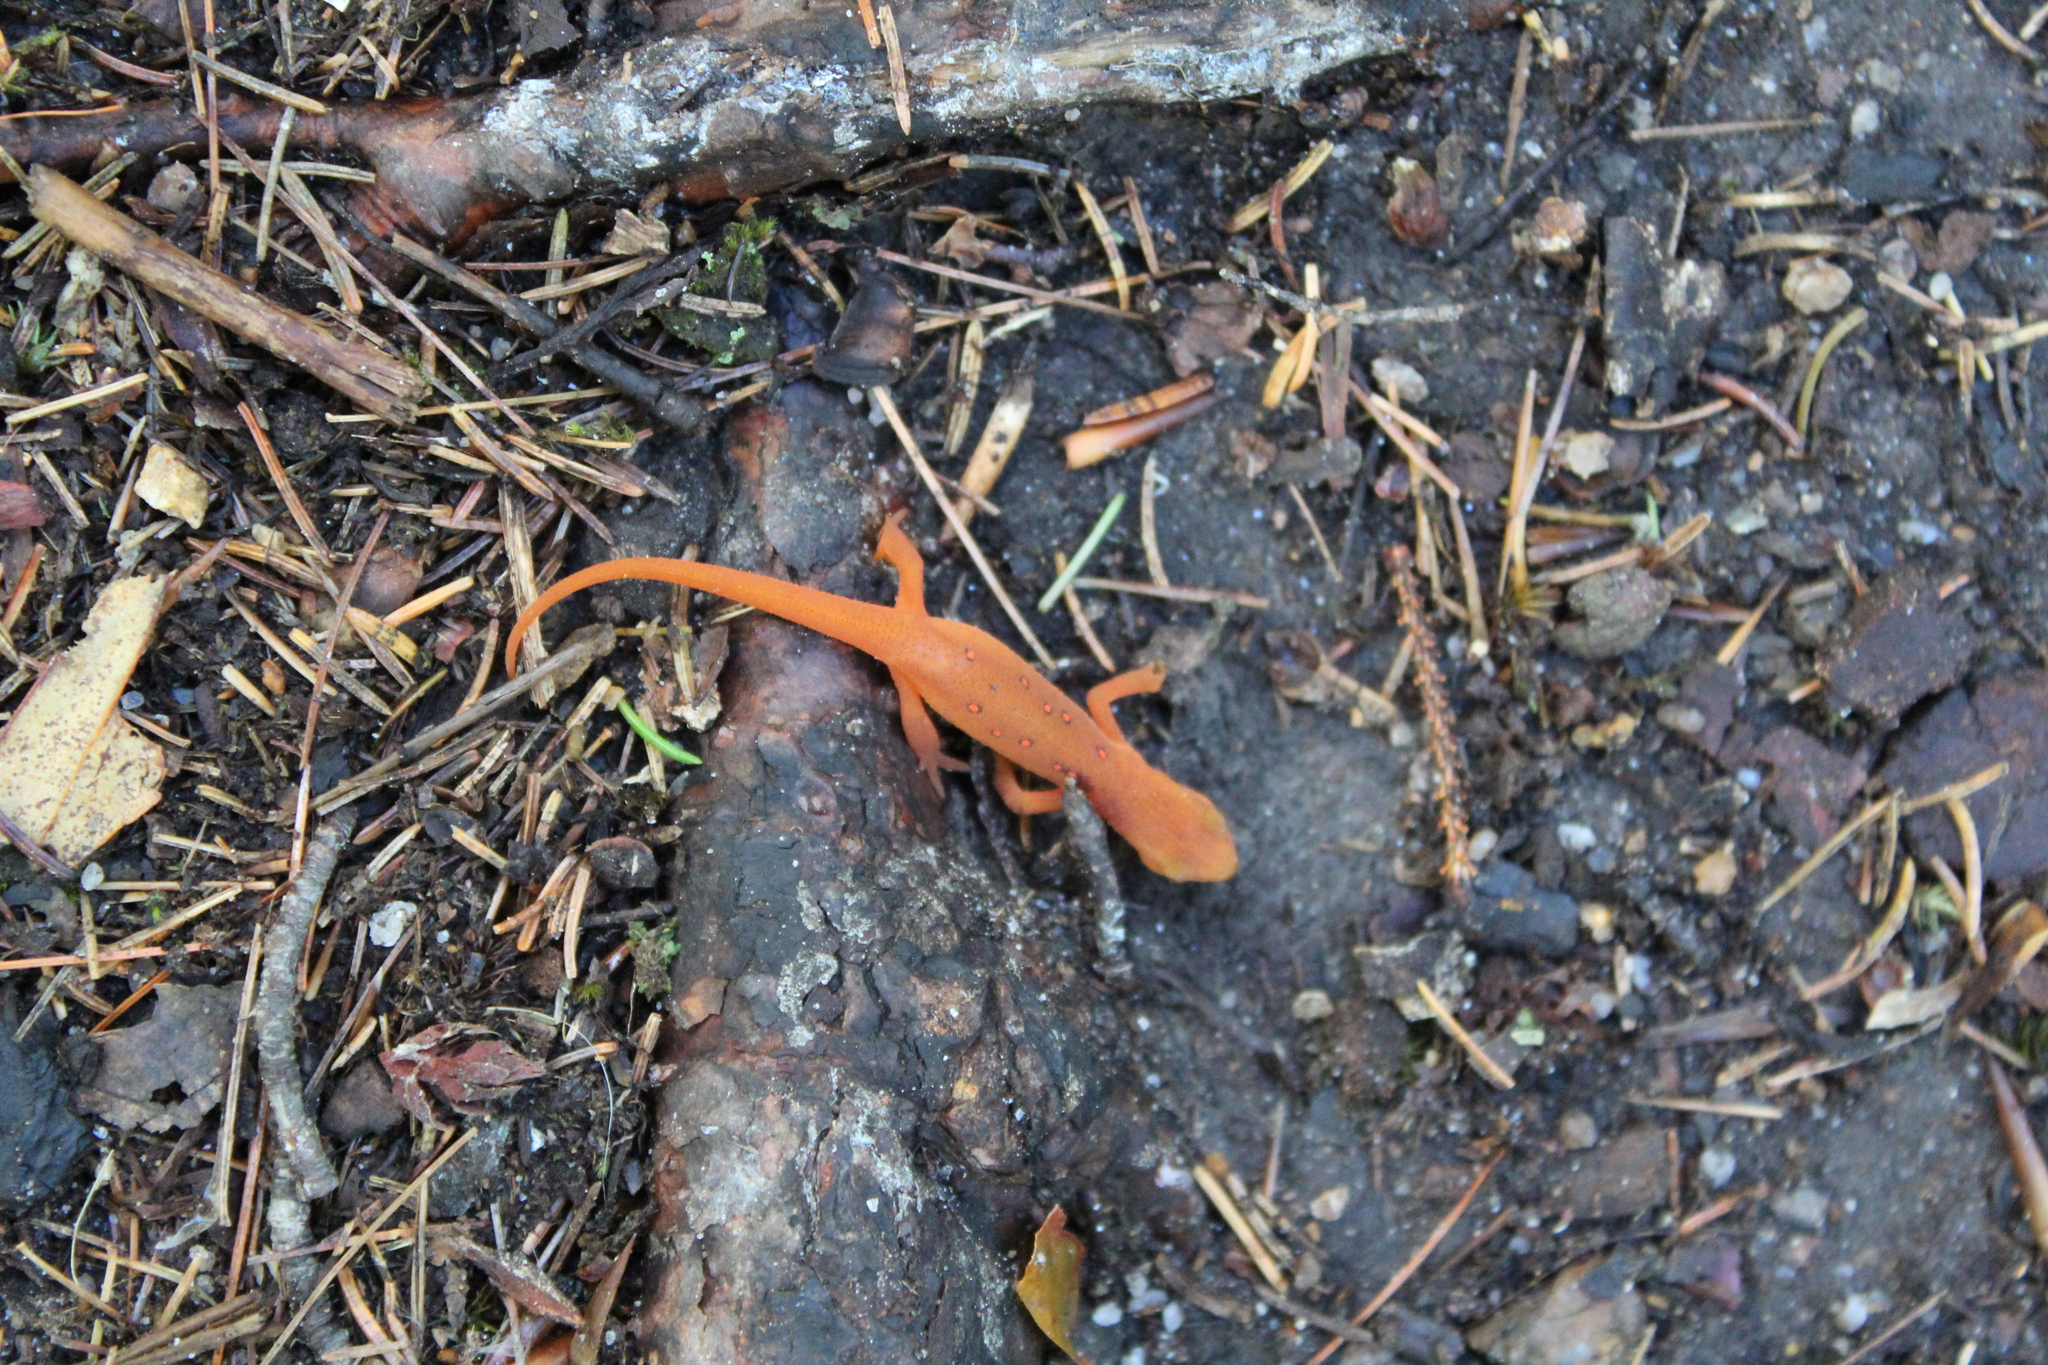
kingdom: Animalia
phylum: Chordata
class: Amphibia
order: Caudata
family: Salamandridae
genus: Notophthalmus
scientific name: Notophthalmus viridescens
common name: Eastern newt
